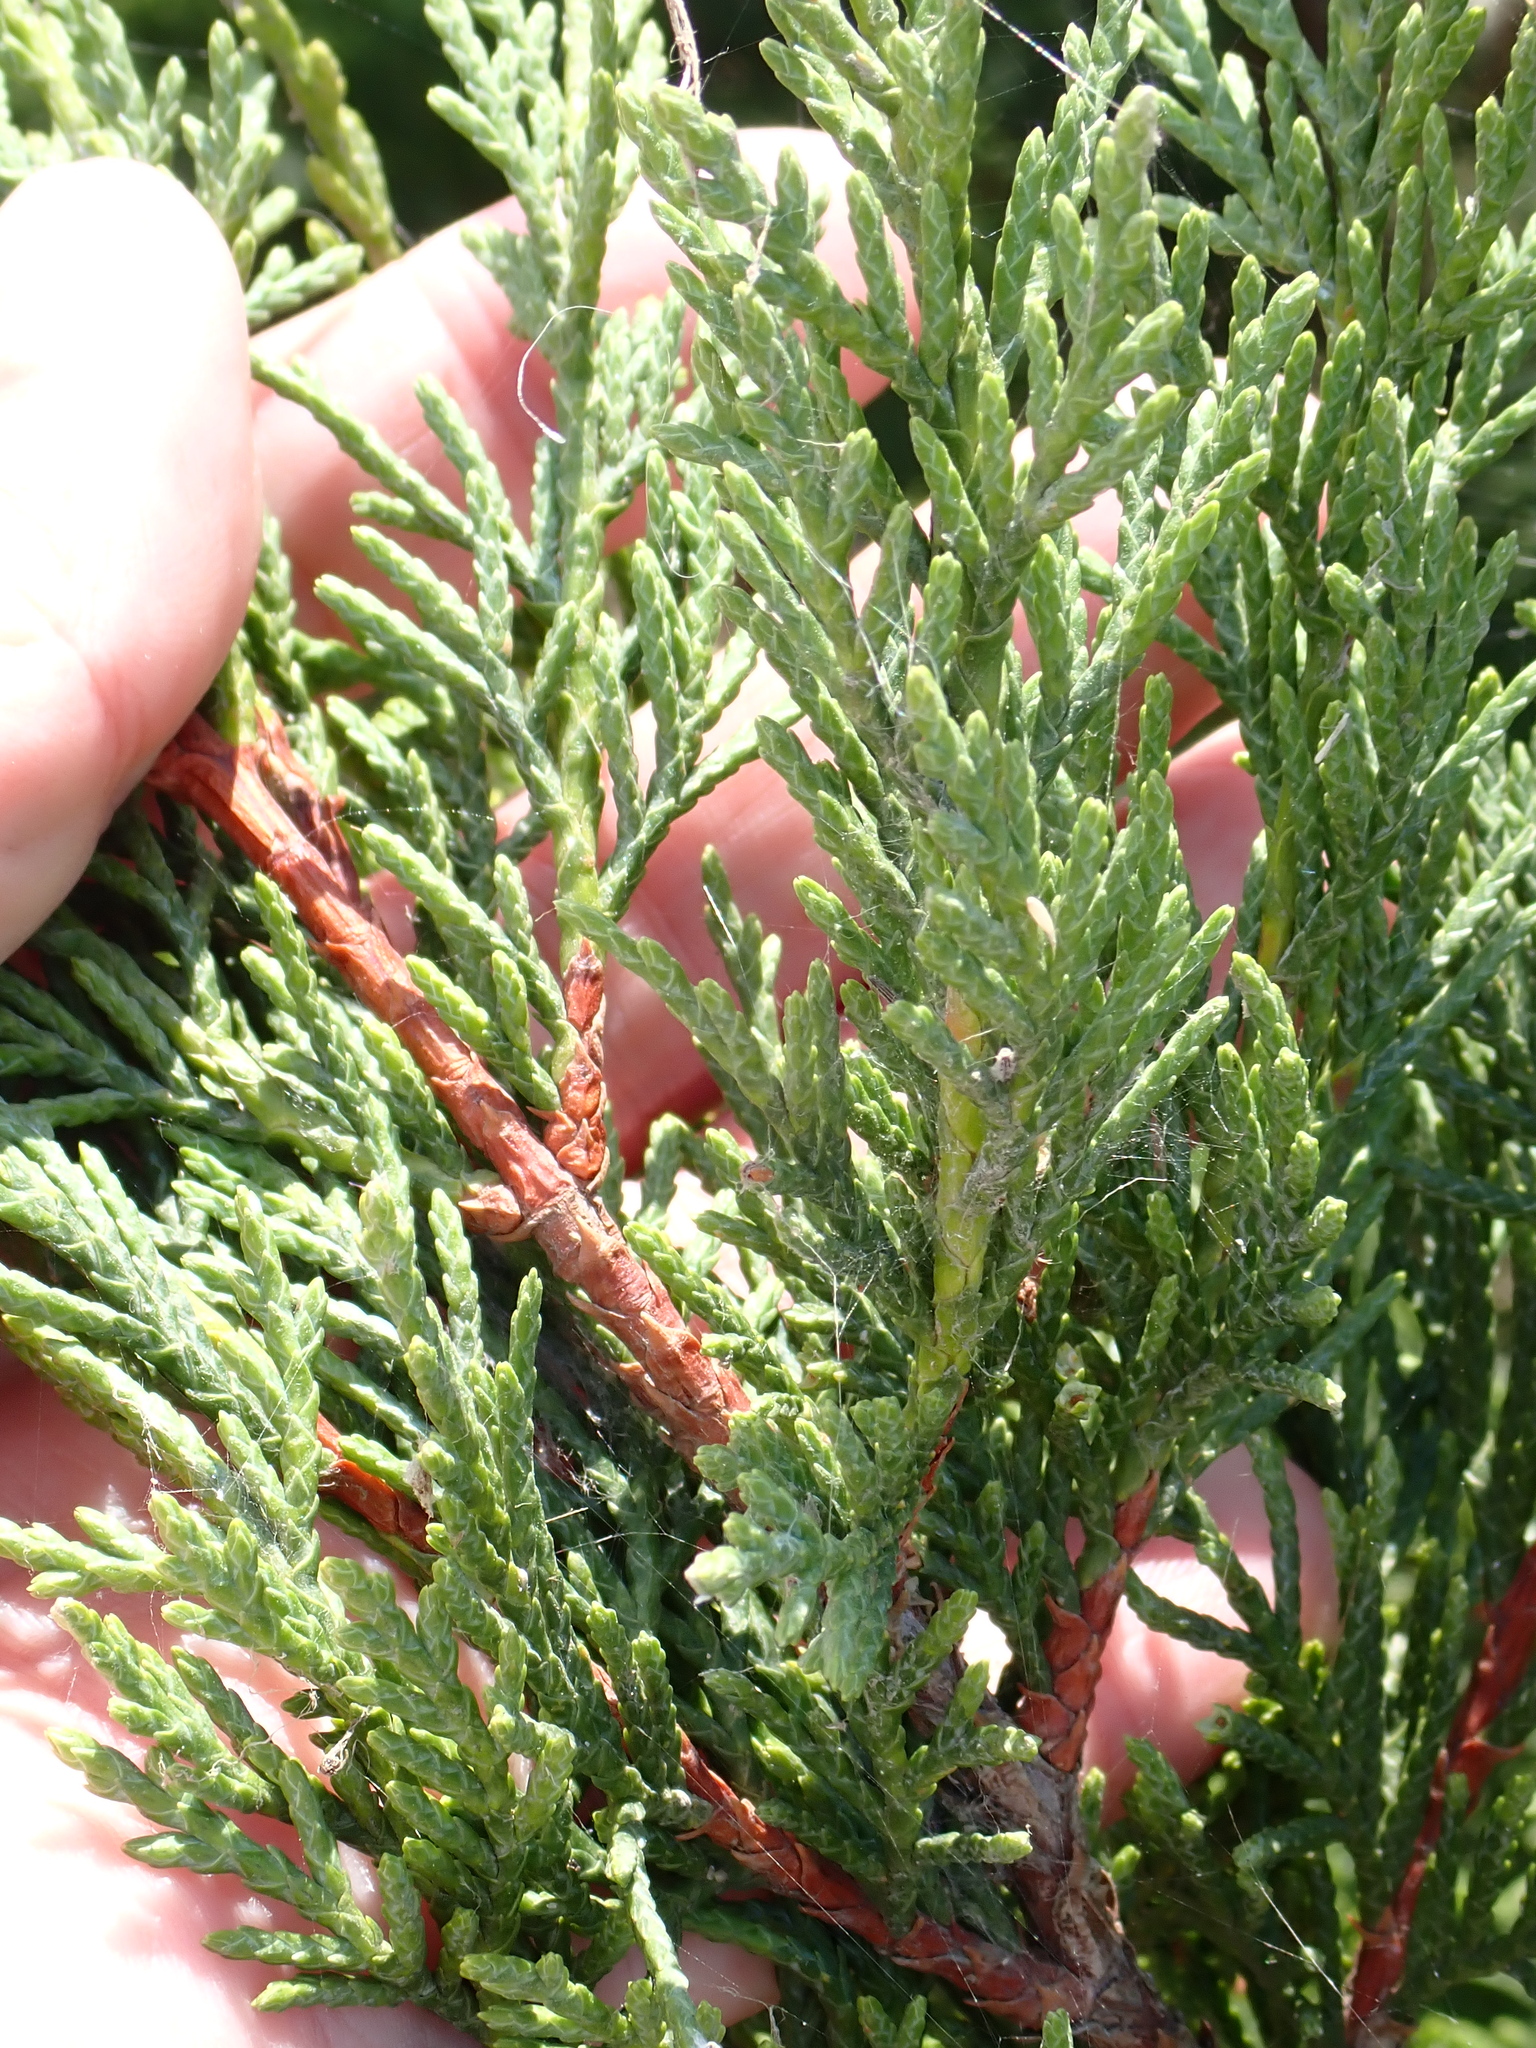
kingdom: Plantae
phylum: Tracheophyta
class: Pinopsida
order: Pinales
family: Cupressaceae
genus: Cupressus
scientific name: Cupressus macrocarpa
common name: Monterey cypress
